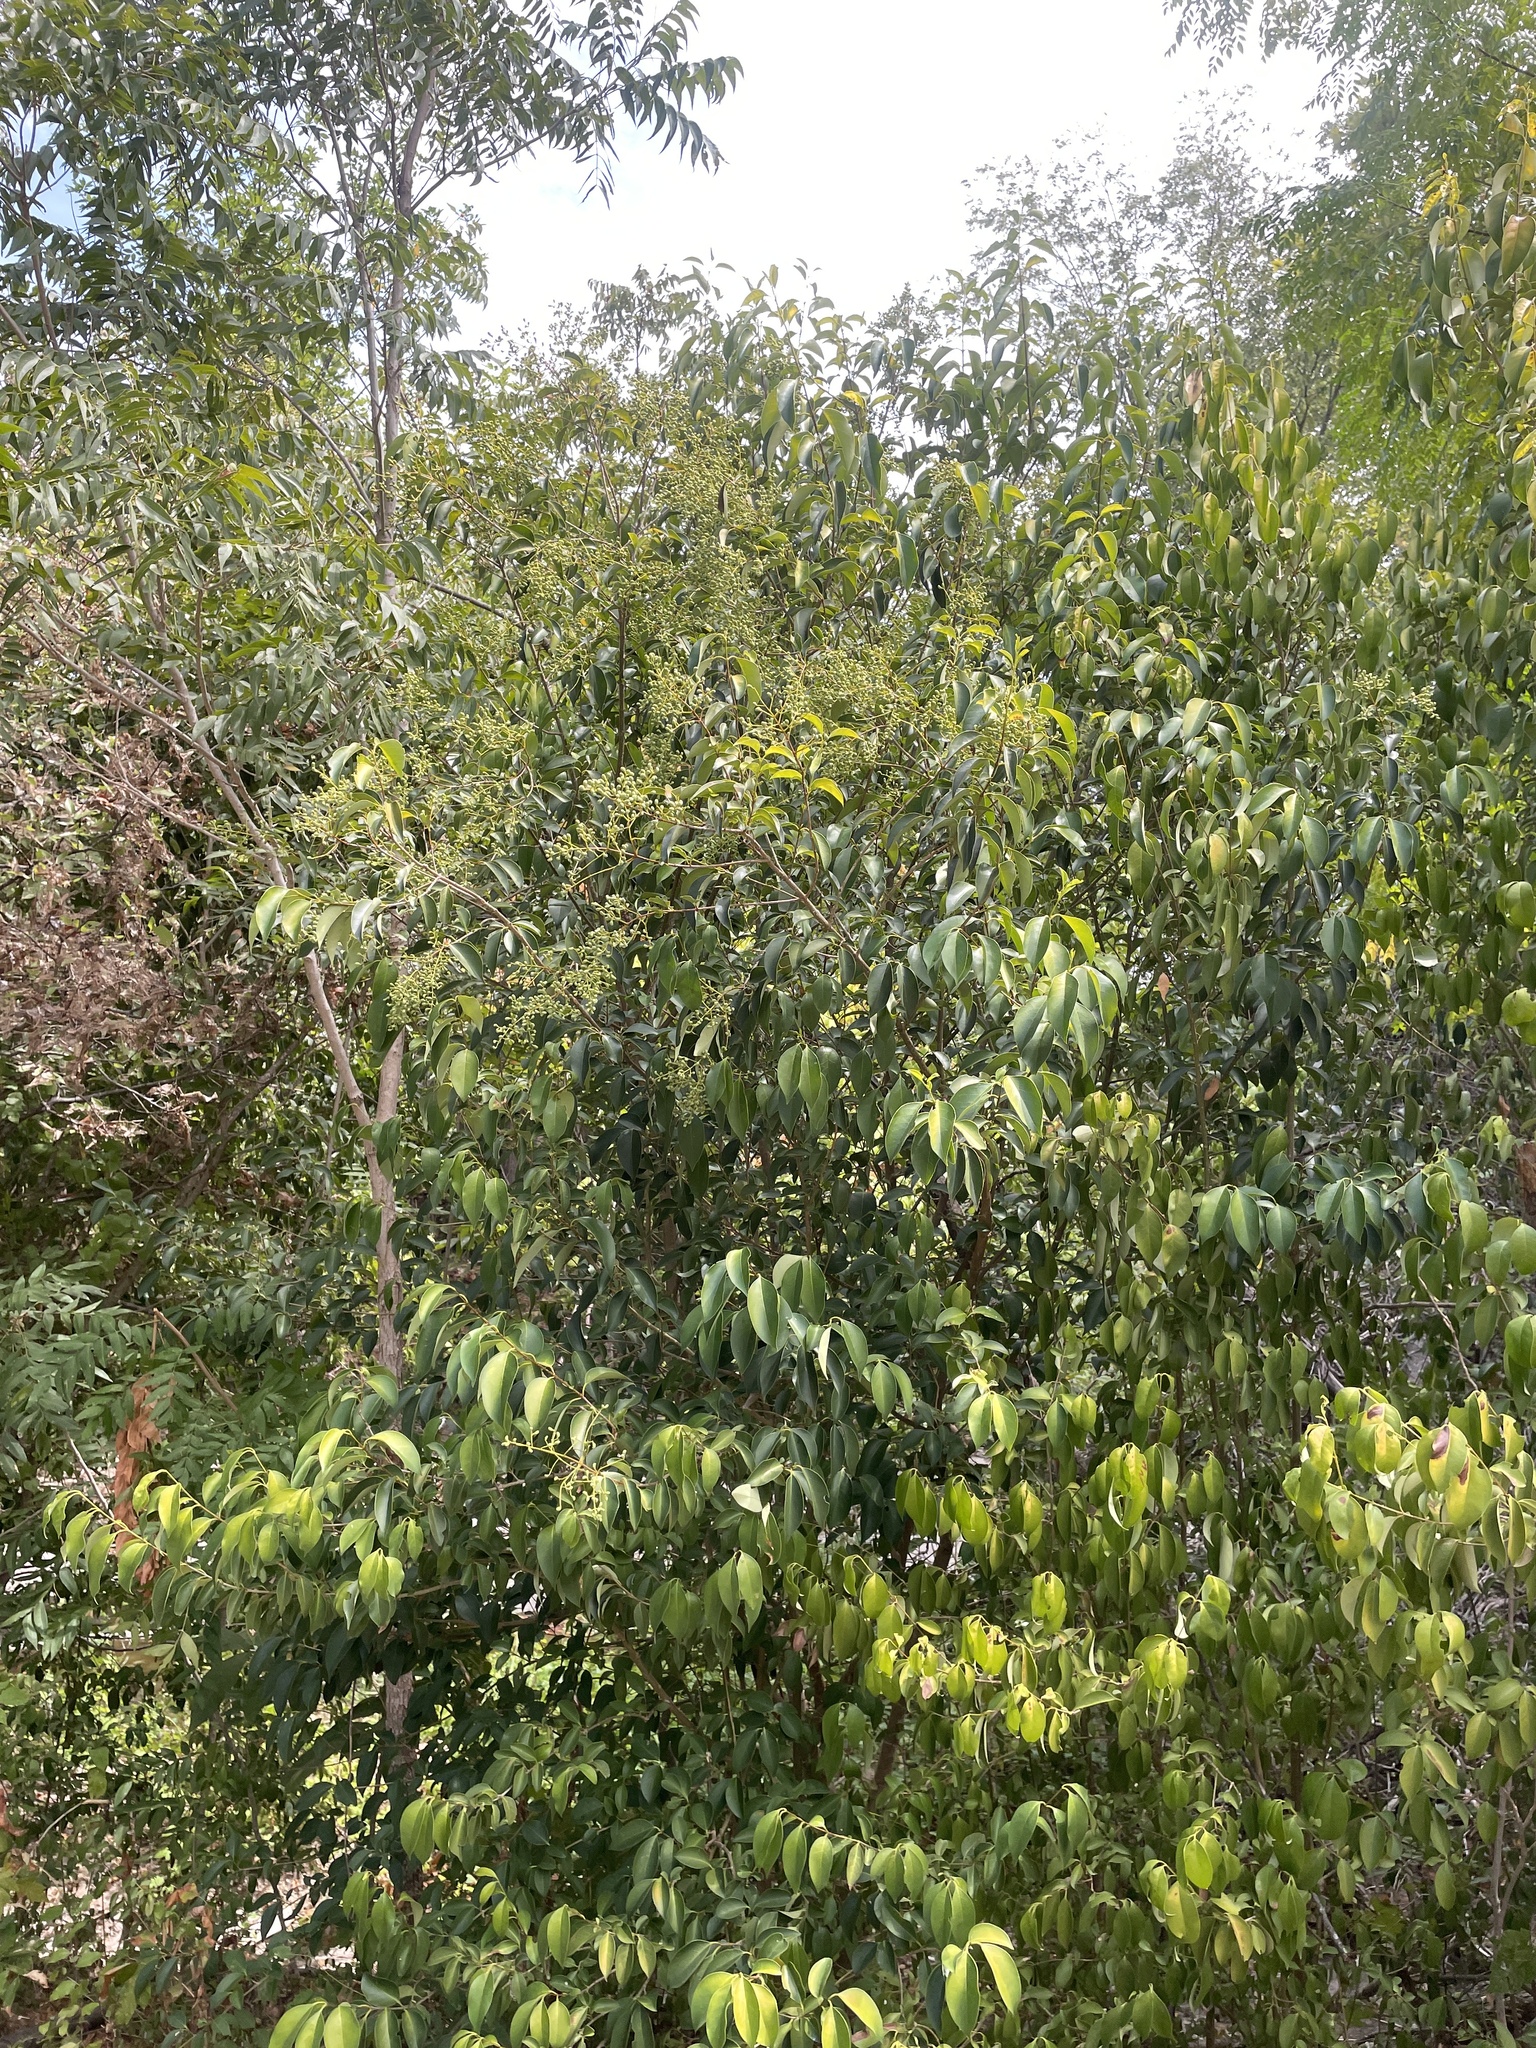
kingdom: Plantae
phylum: Tracheophyta
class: Magnoliopsida
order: Lamiales
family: Oleaceae
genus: Ligustrum
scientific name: Ligustrum lucidum
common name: Glossy privet
